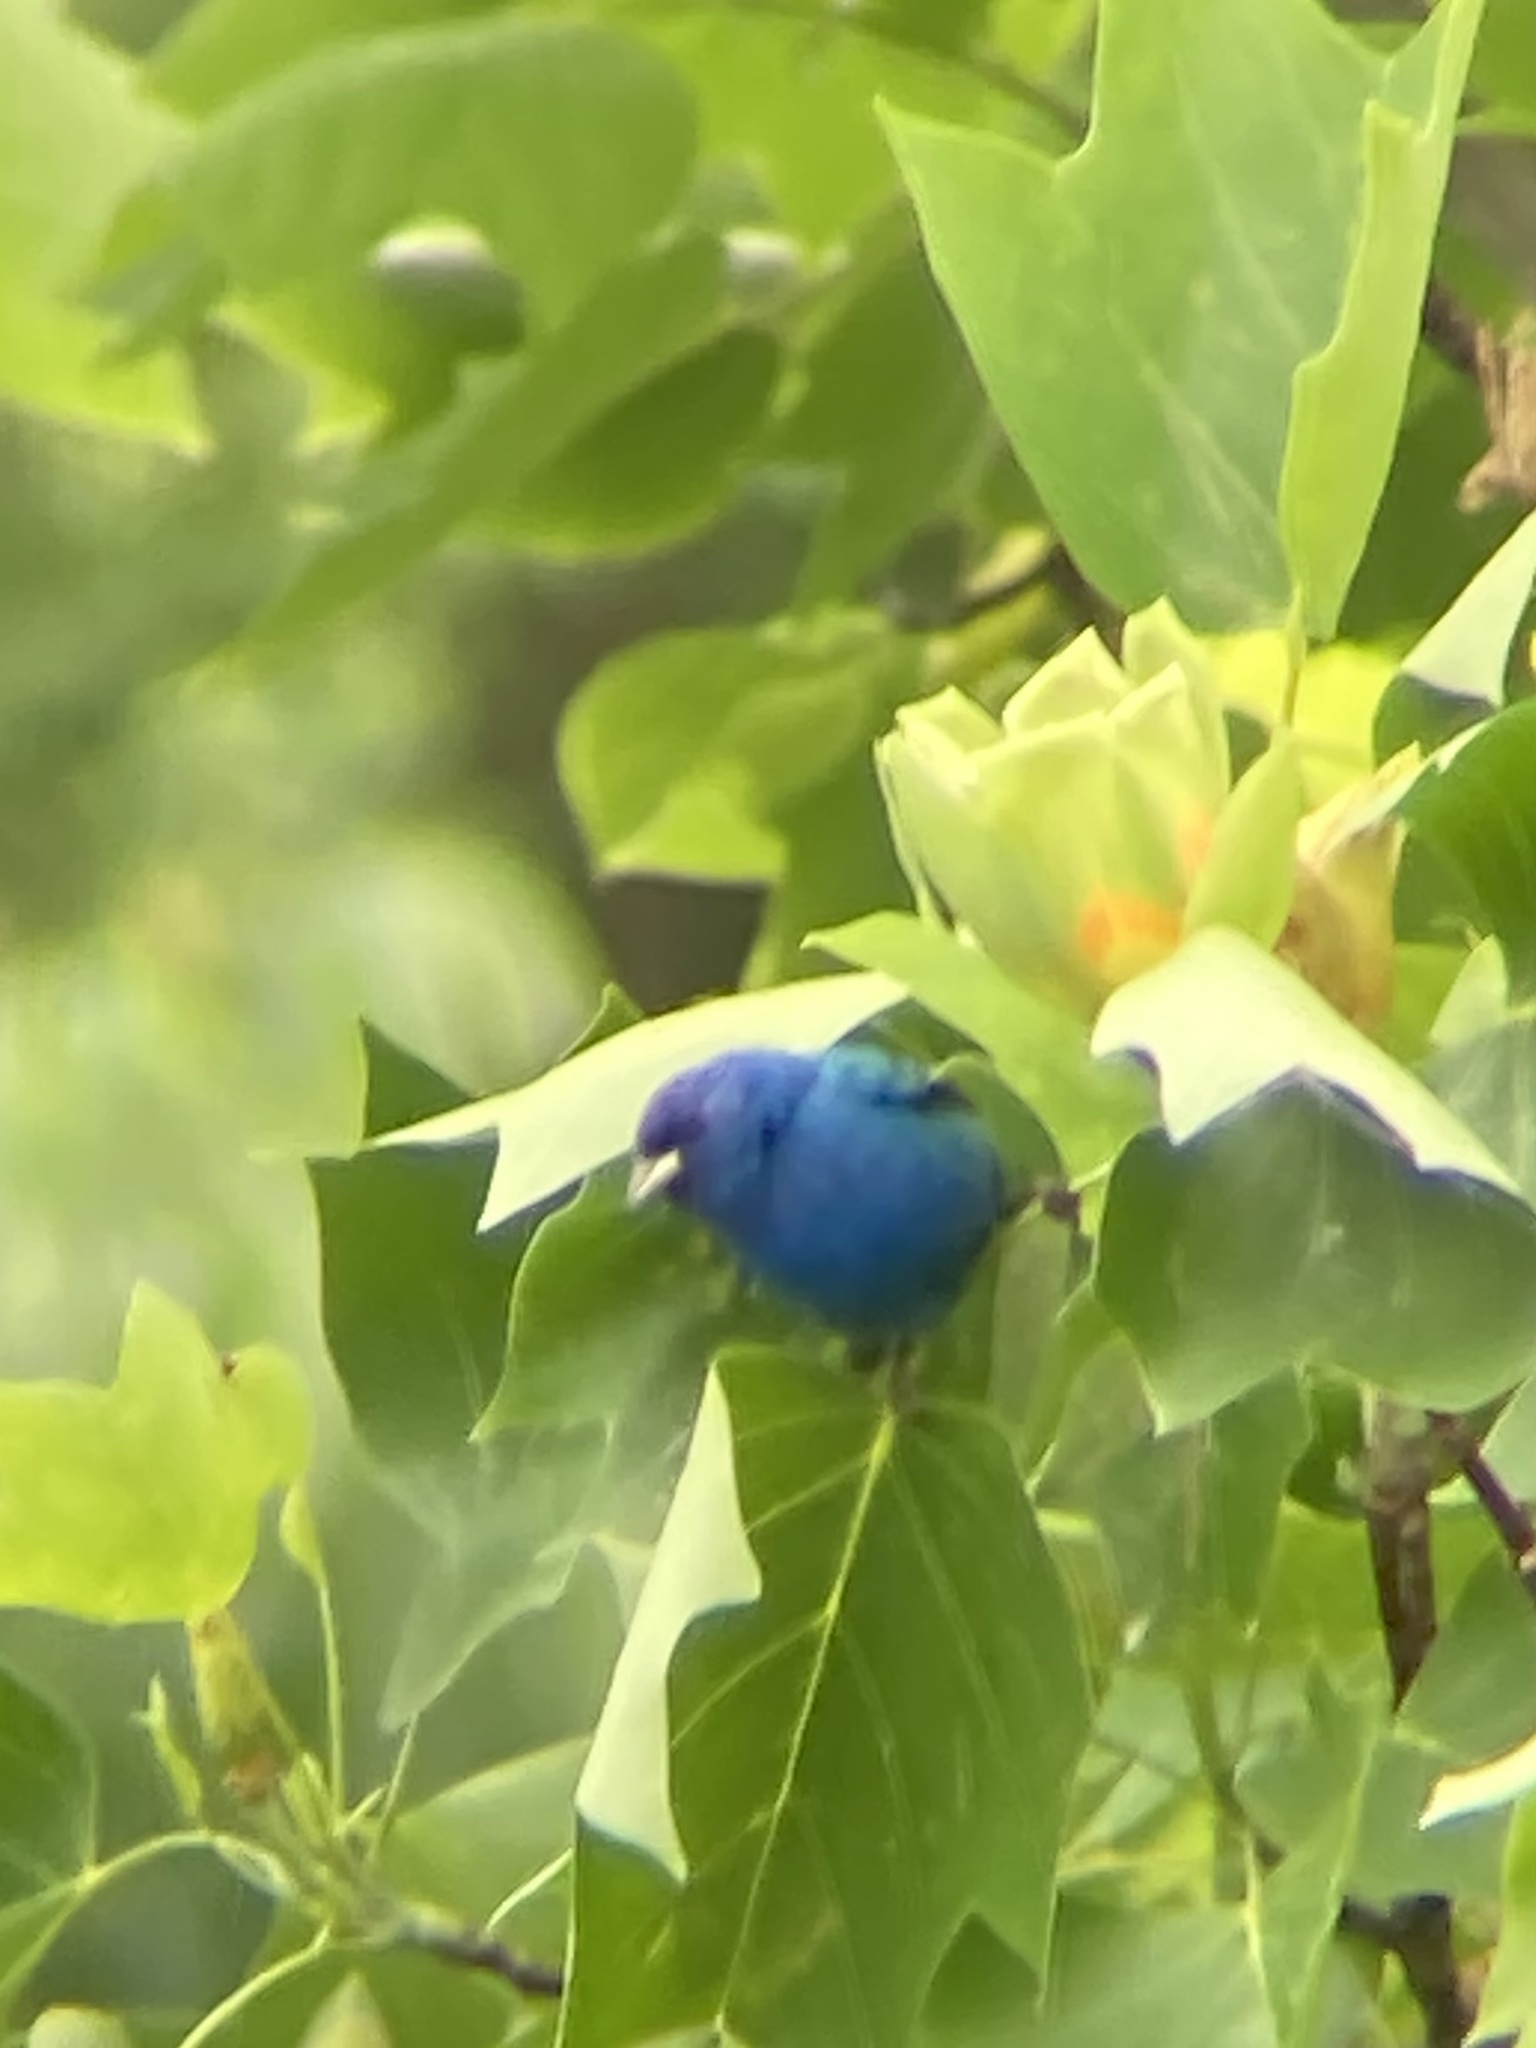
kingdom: Animalia
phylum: Chordata
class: Aves
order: Passeriformes
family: Cardinalidae
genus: Passerina
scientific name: Passerina cyanea
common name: Indigo bunting
